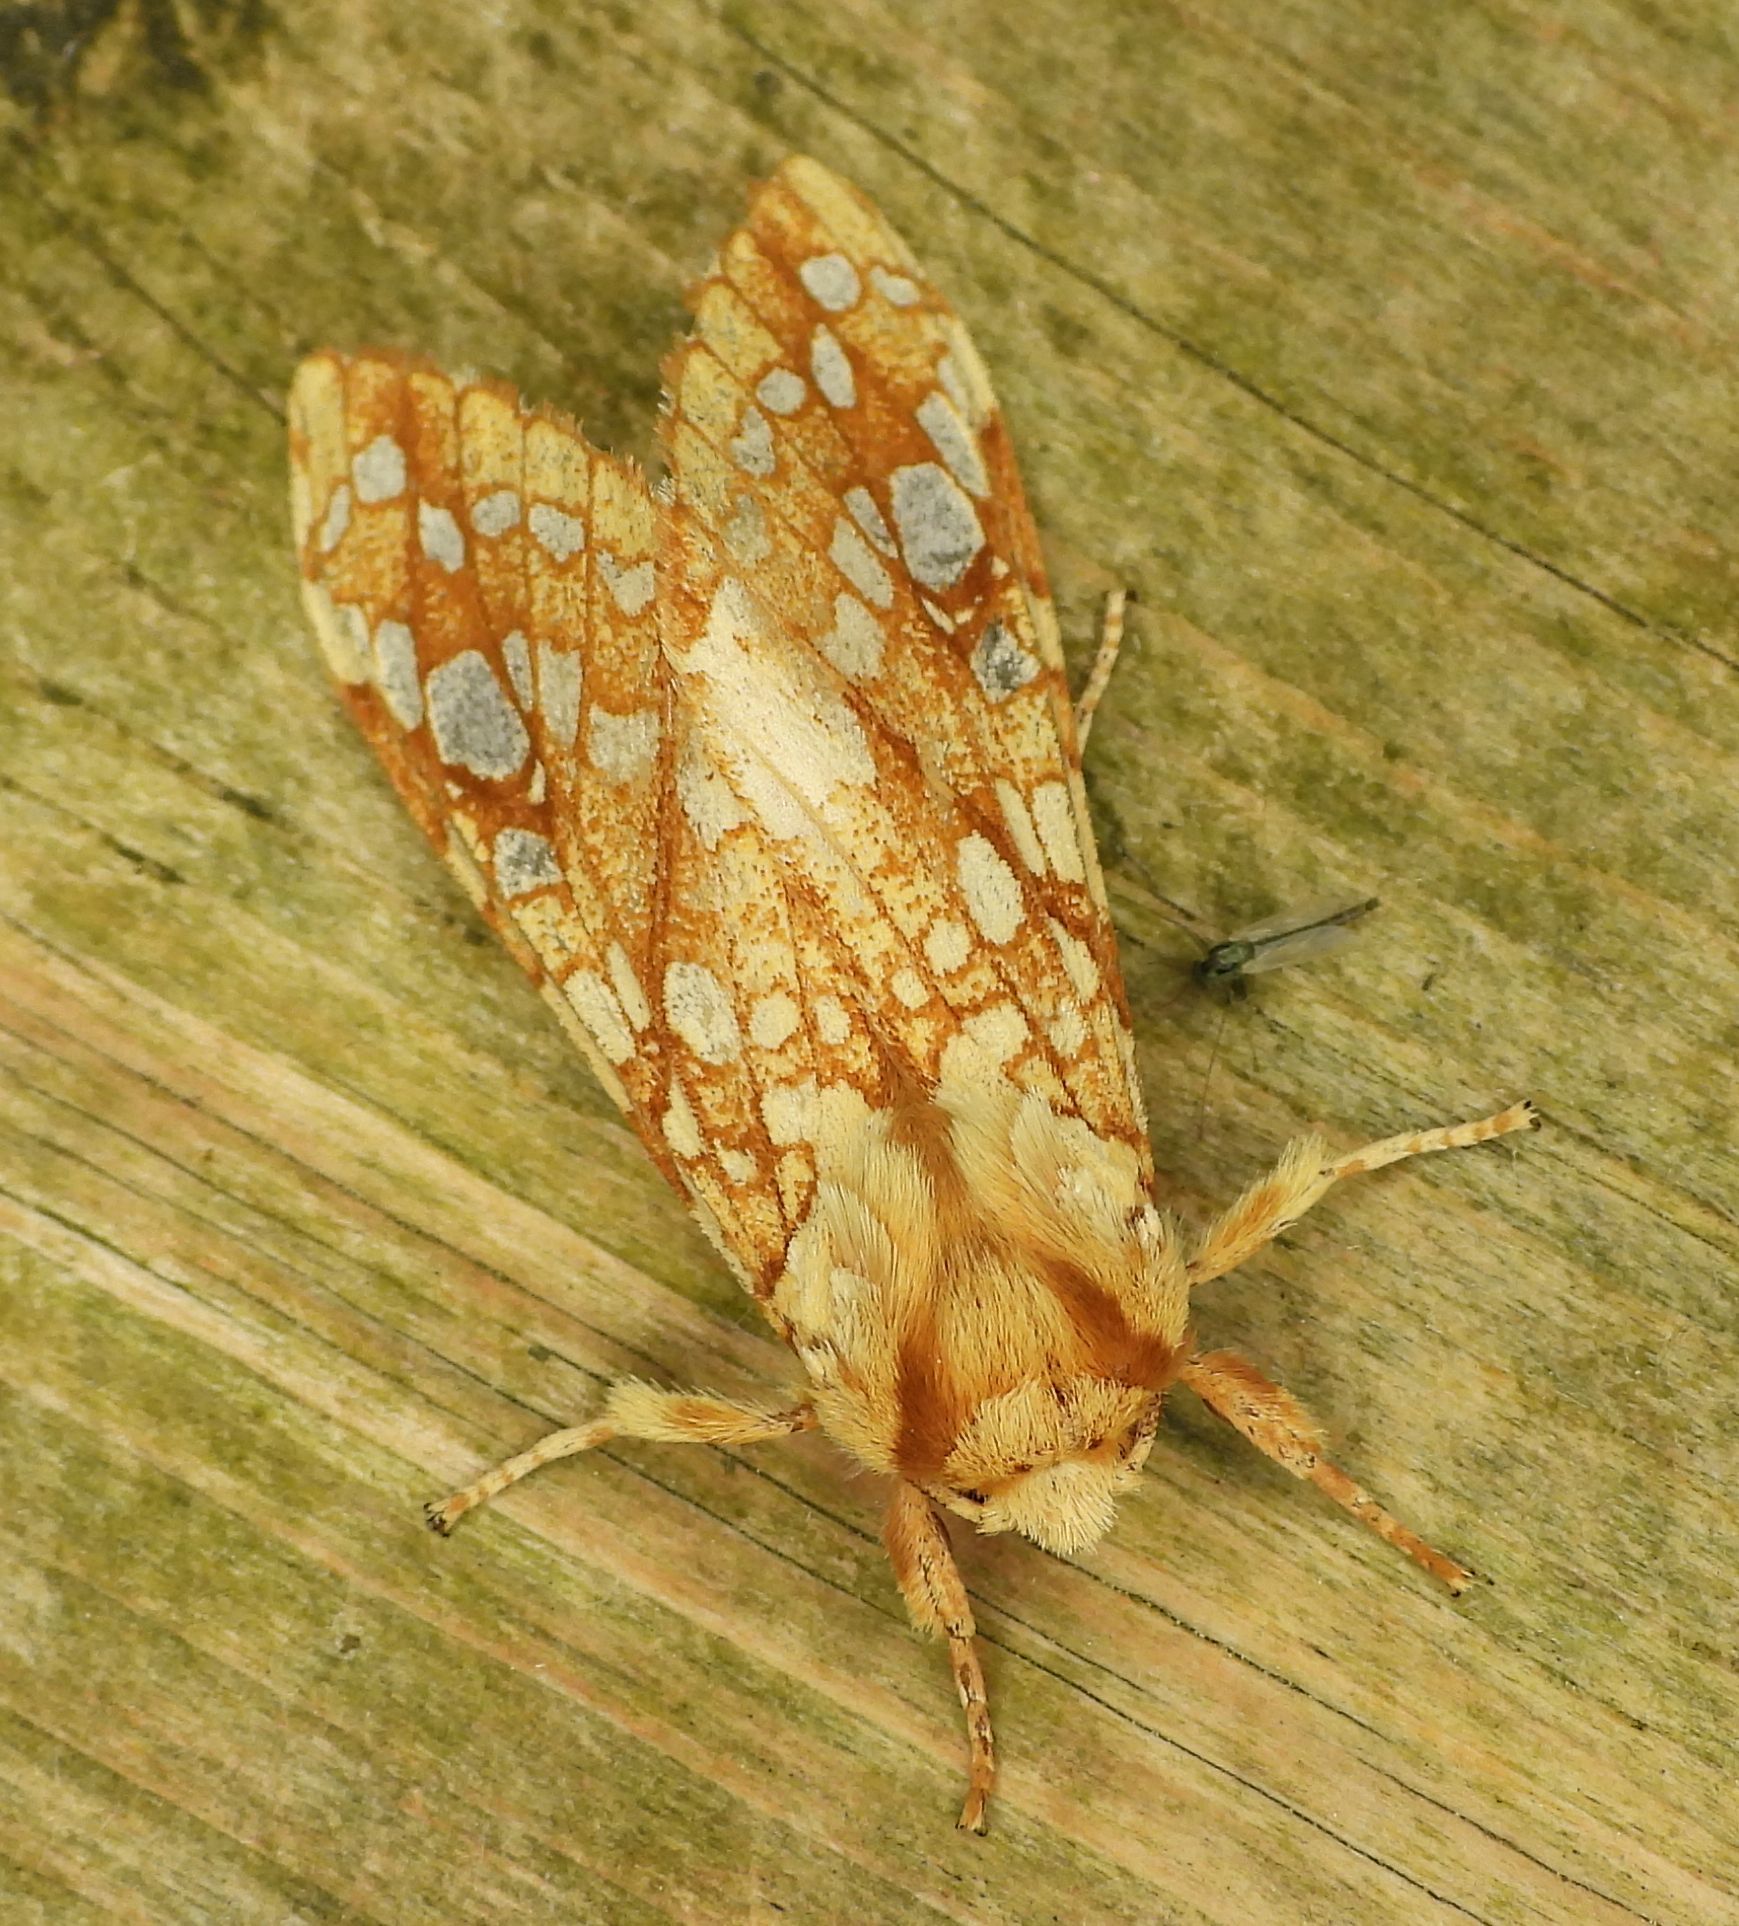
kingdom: Animalia
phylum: Arthropoda
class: Insecta
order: Lepidoptera
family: Erebidae
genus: Lophocampa
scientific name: Lophocampa caryae
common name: Hickory tussock moth
